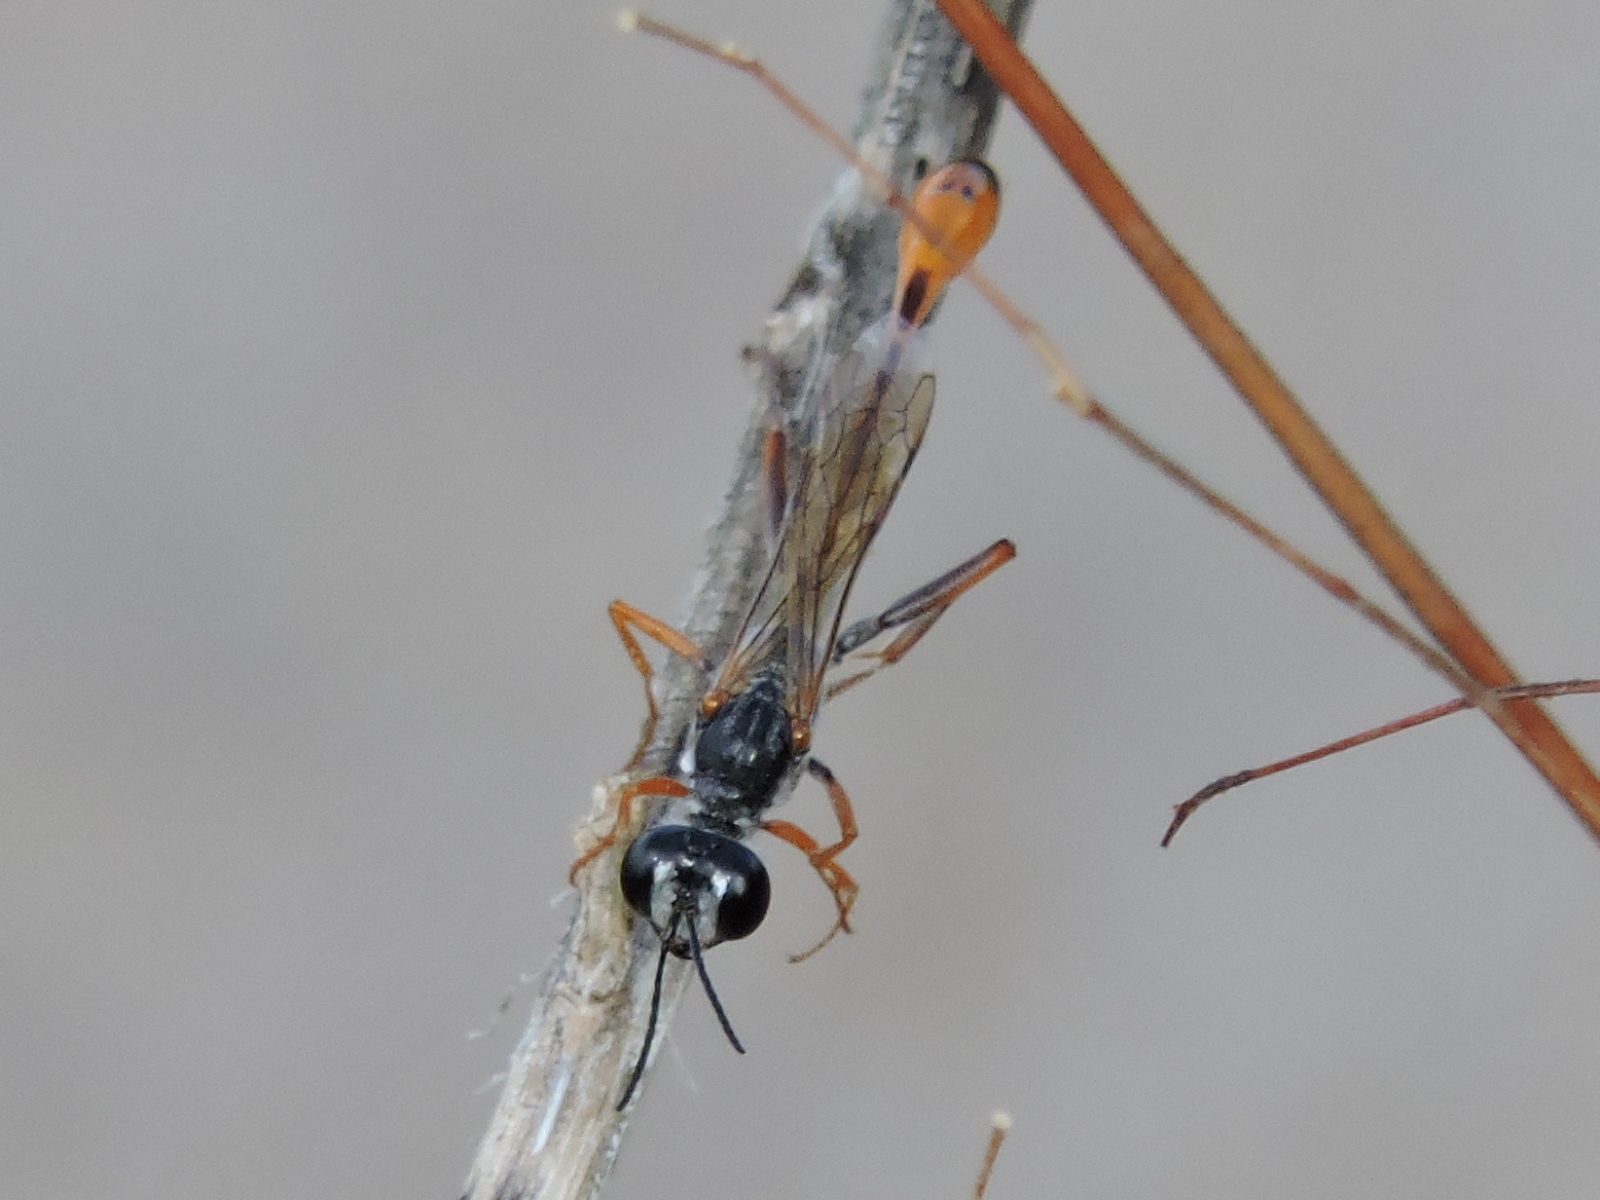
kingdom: Animalia
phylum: Arthropoda
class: Insecta
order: Hymenoptera
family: Sphecidae
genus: Ammophila
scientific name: Ammophila aberti
